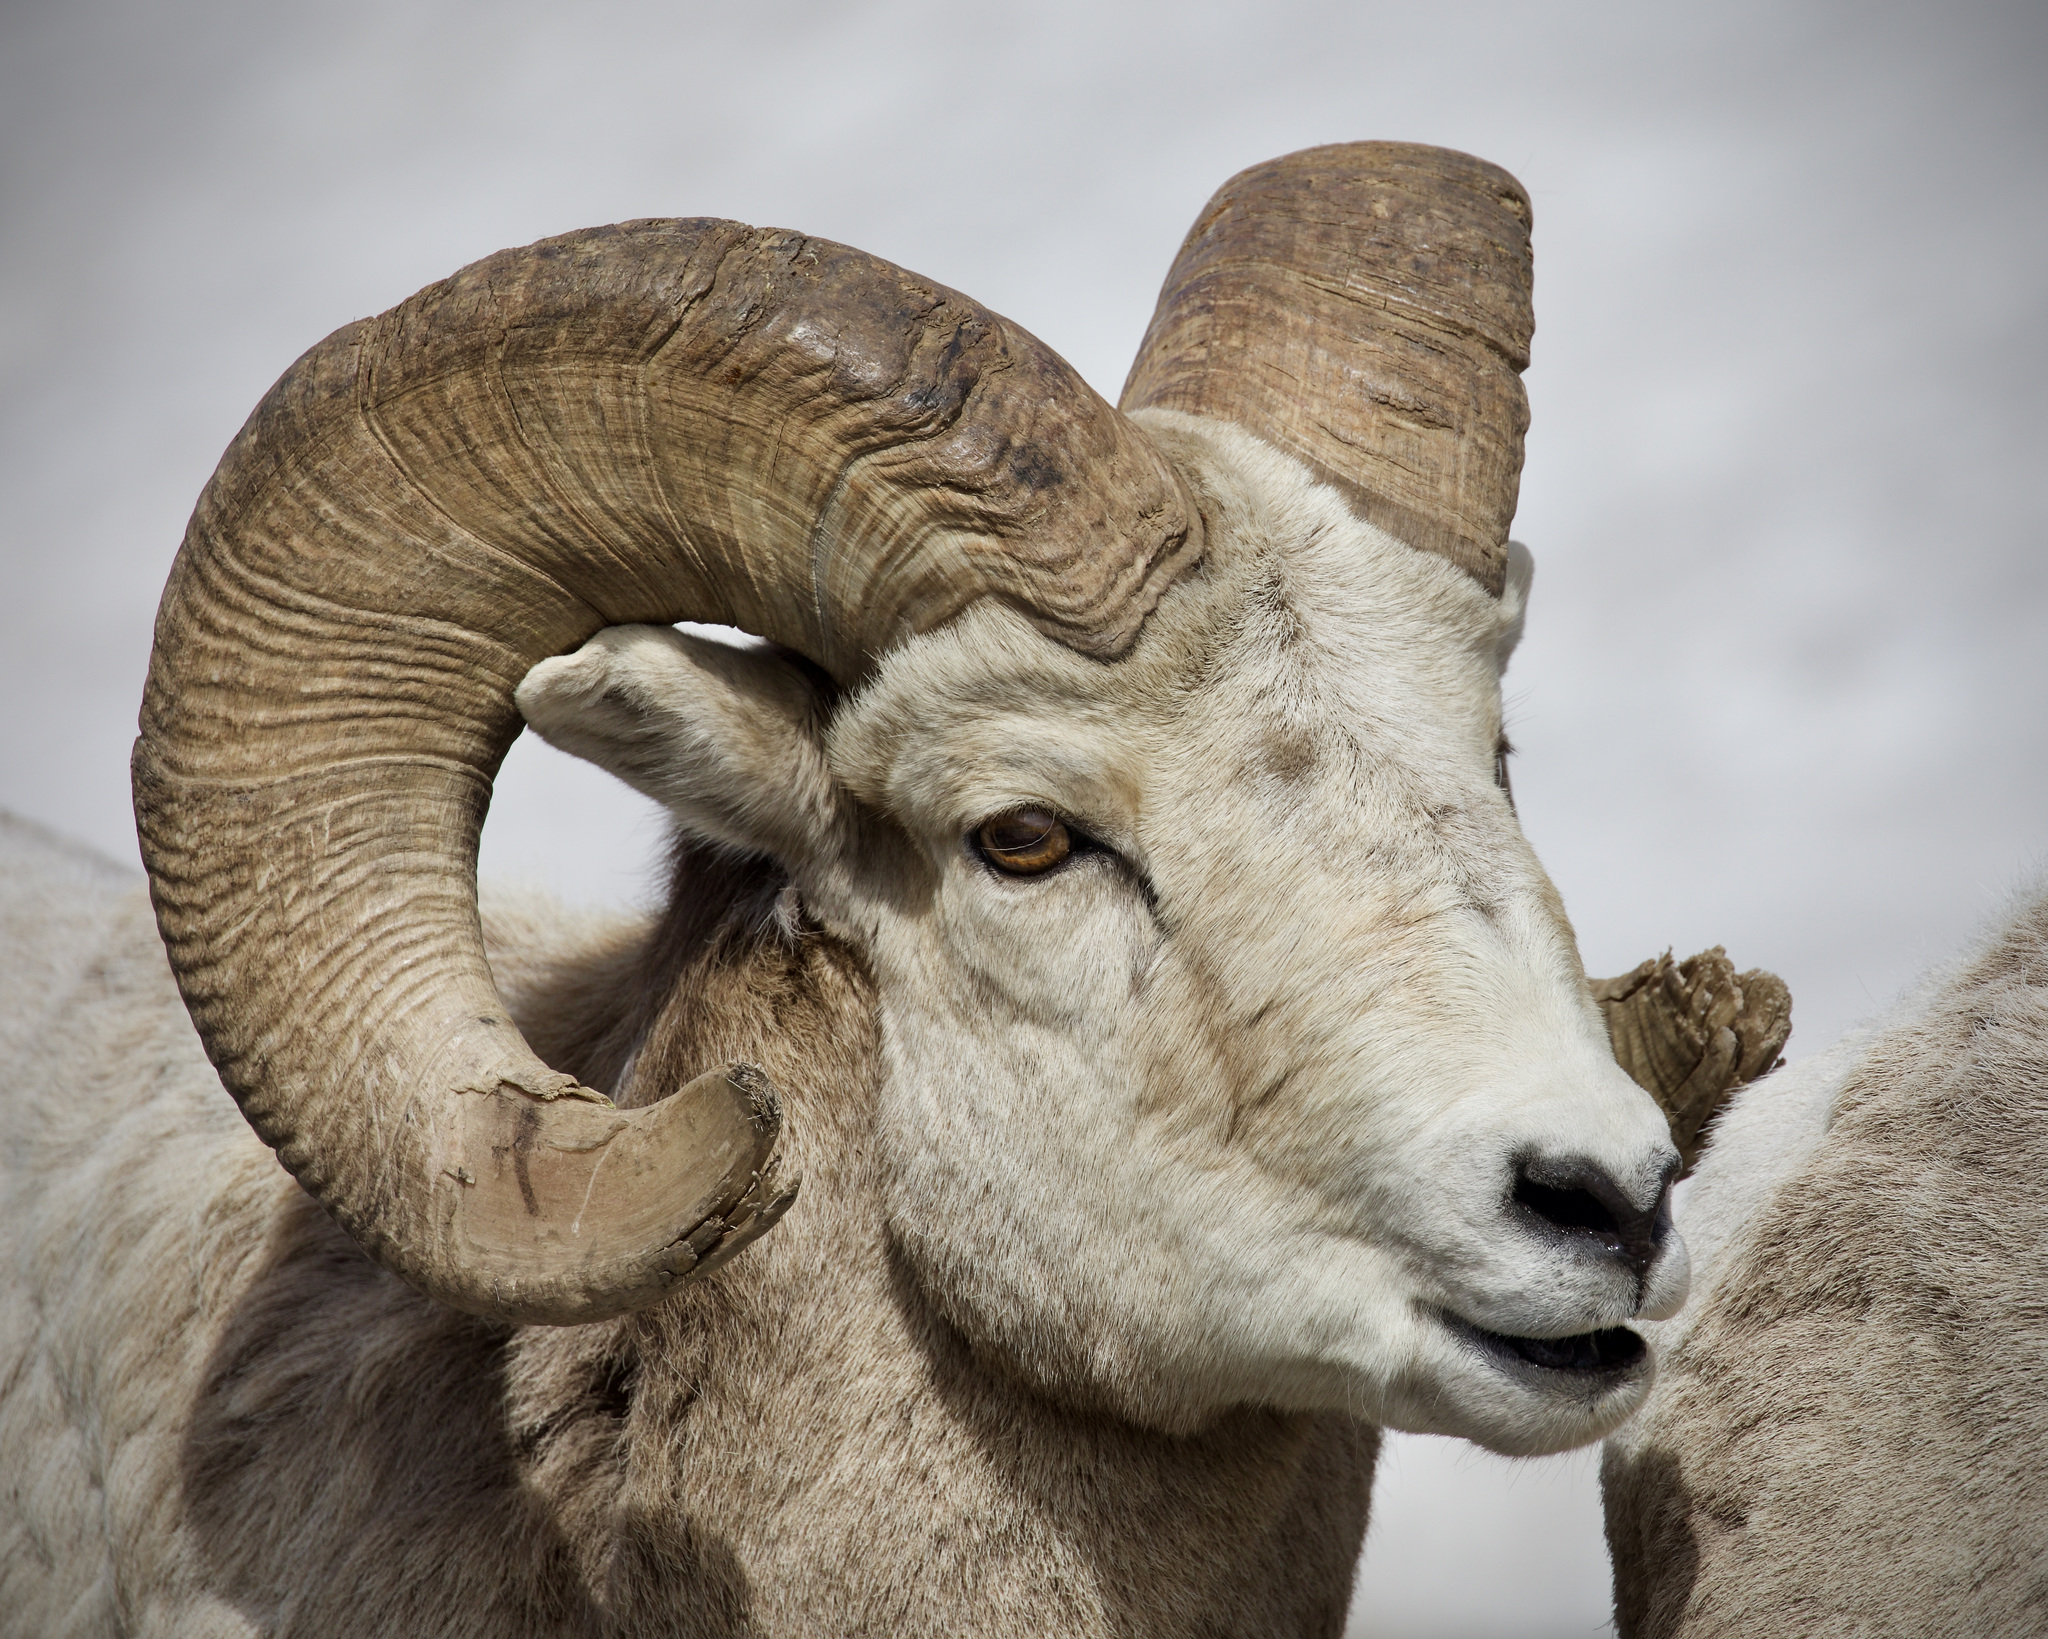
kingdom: Animalia
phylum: Chordata
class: Mammalia
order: Artiodactyla
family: Bovidae
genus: Ovis
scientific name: Ovis canadensis
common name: Bighorn sheep
